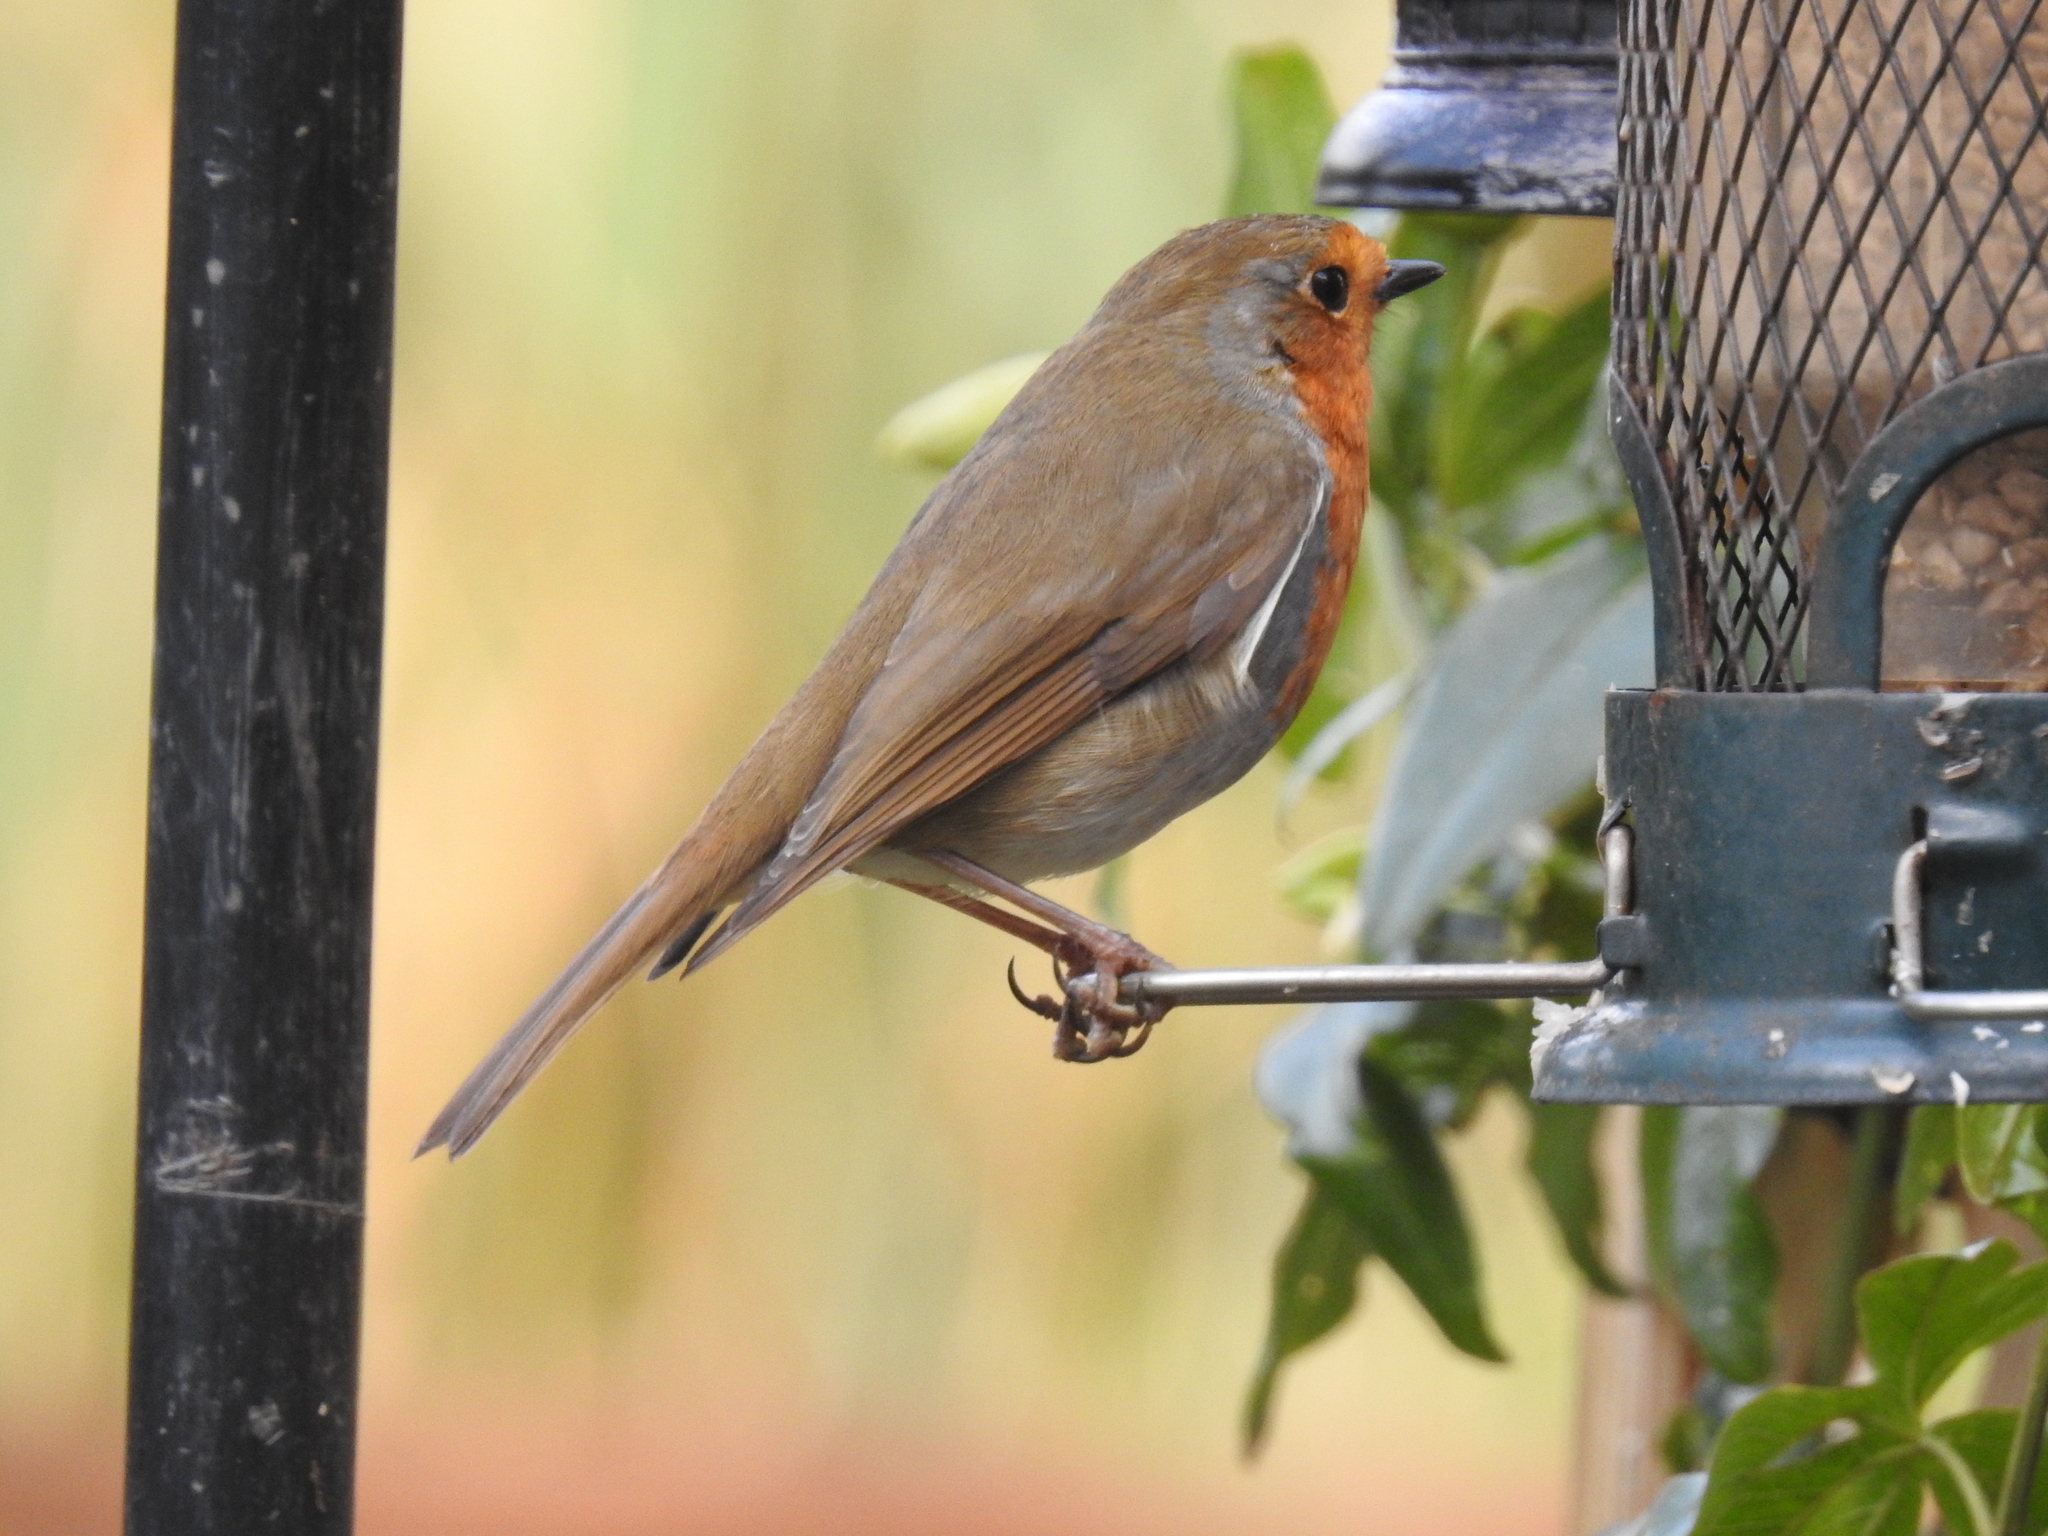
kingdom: Animalia
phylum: Chordata
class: Aves
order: Passeriformes
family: Muscicapidae
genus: Erithacus
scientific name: Erithacus rubecula
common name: European robin
